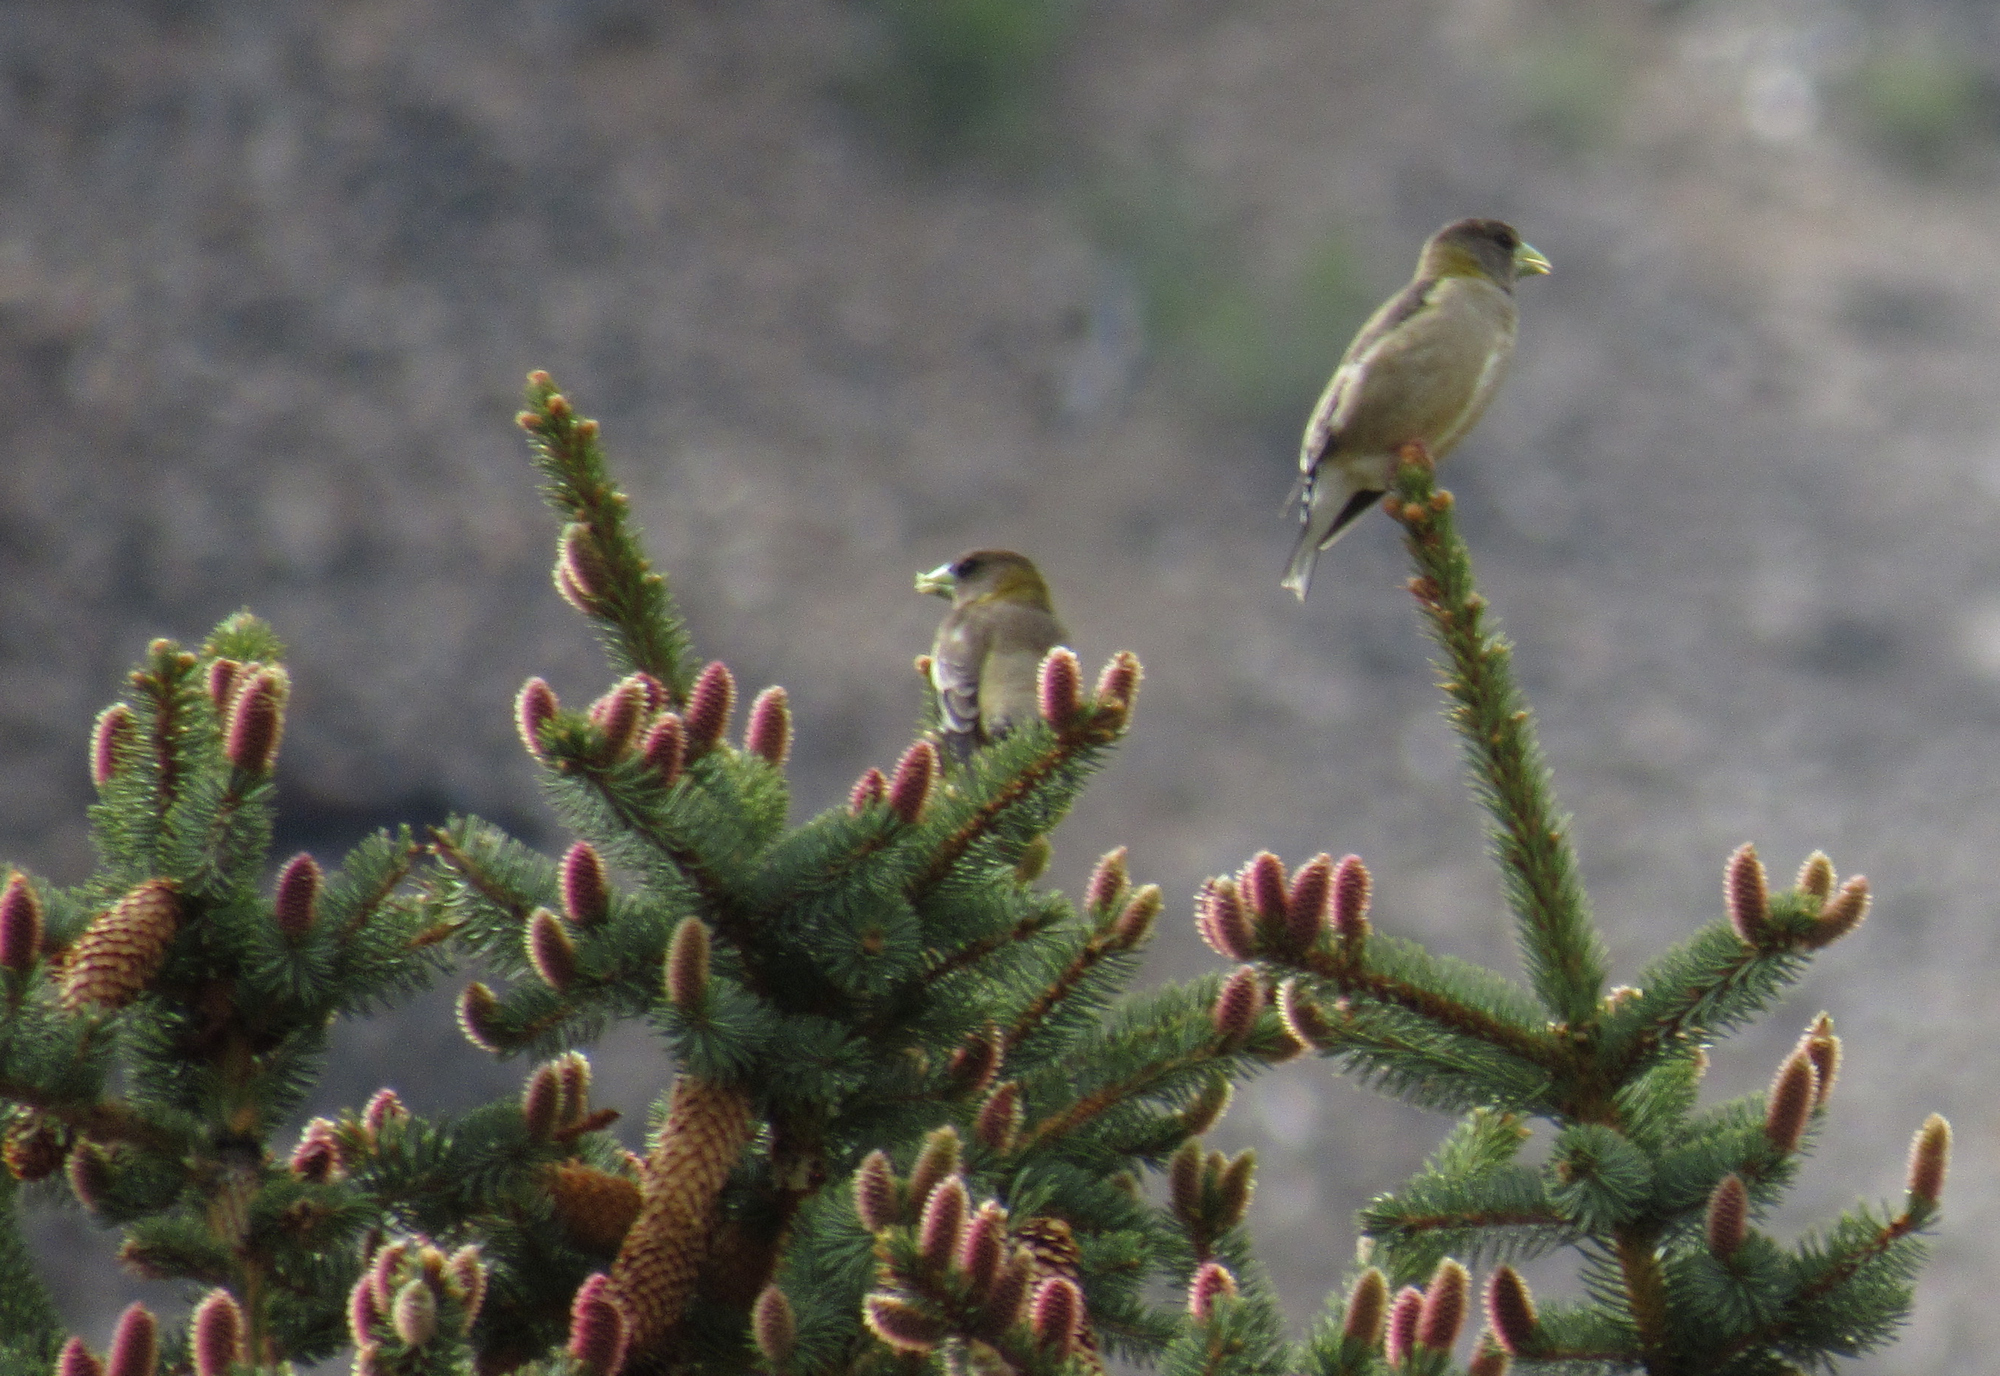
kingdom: Animalia
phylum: Chordata
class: Aves
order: Passeriformes
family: Fringillidae
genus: Hesperiphona
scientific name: Hesperiphona vespertina
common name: Evening grosbeak
